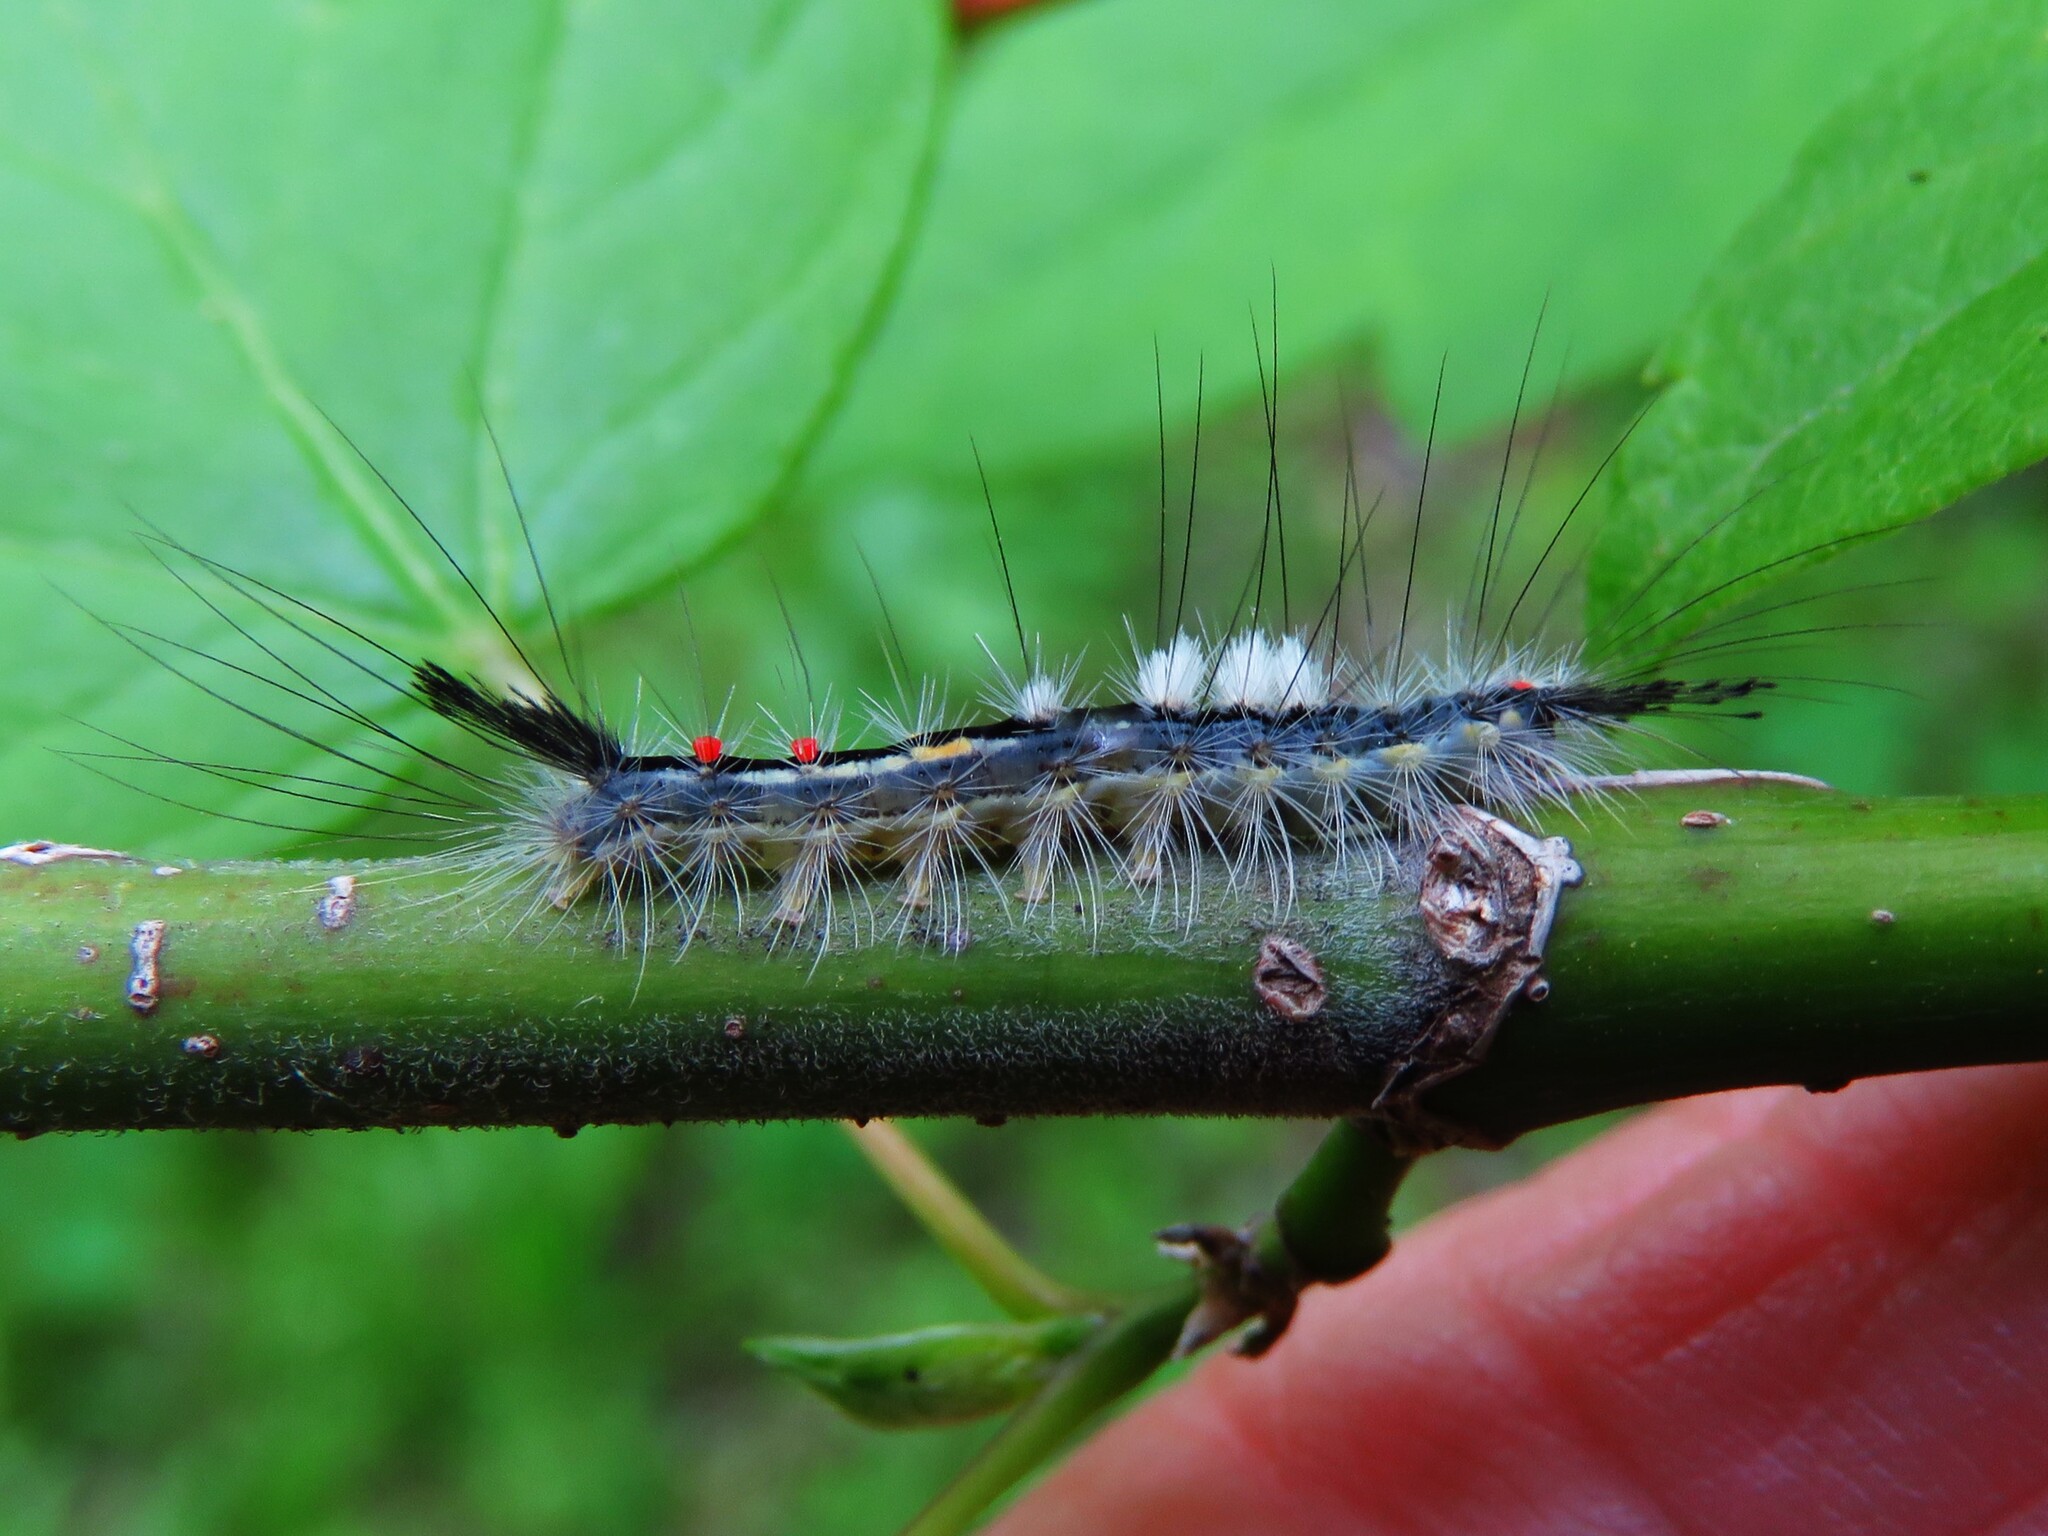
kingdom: Animalia
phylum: Arthropoda
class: Insecta
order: Lepidoptera
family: Erebidae
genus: Orgyia
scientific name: Orgyia leucostigma
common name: White-marked tussock moth
